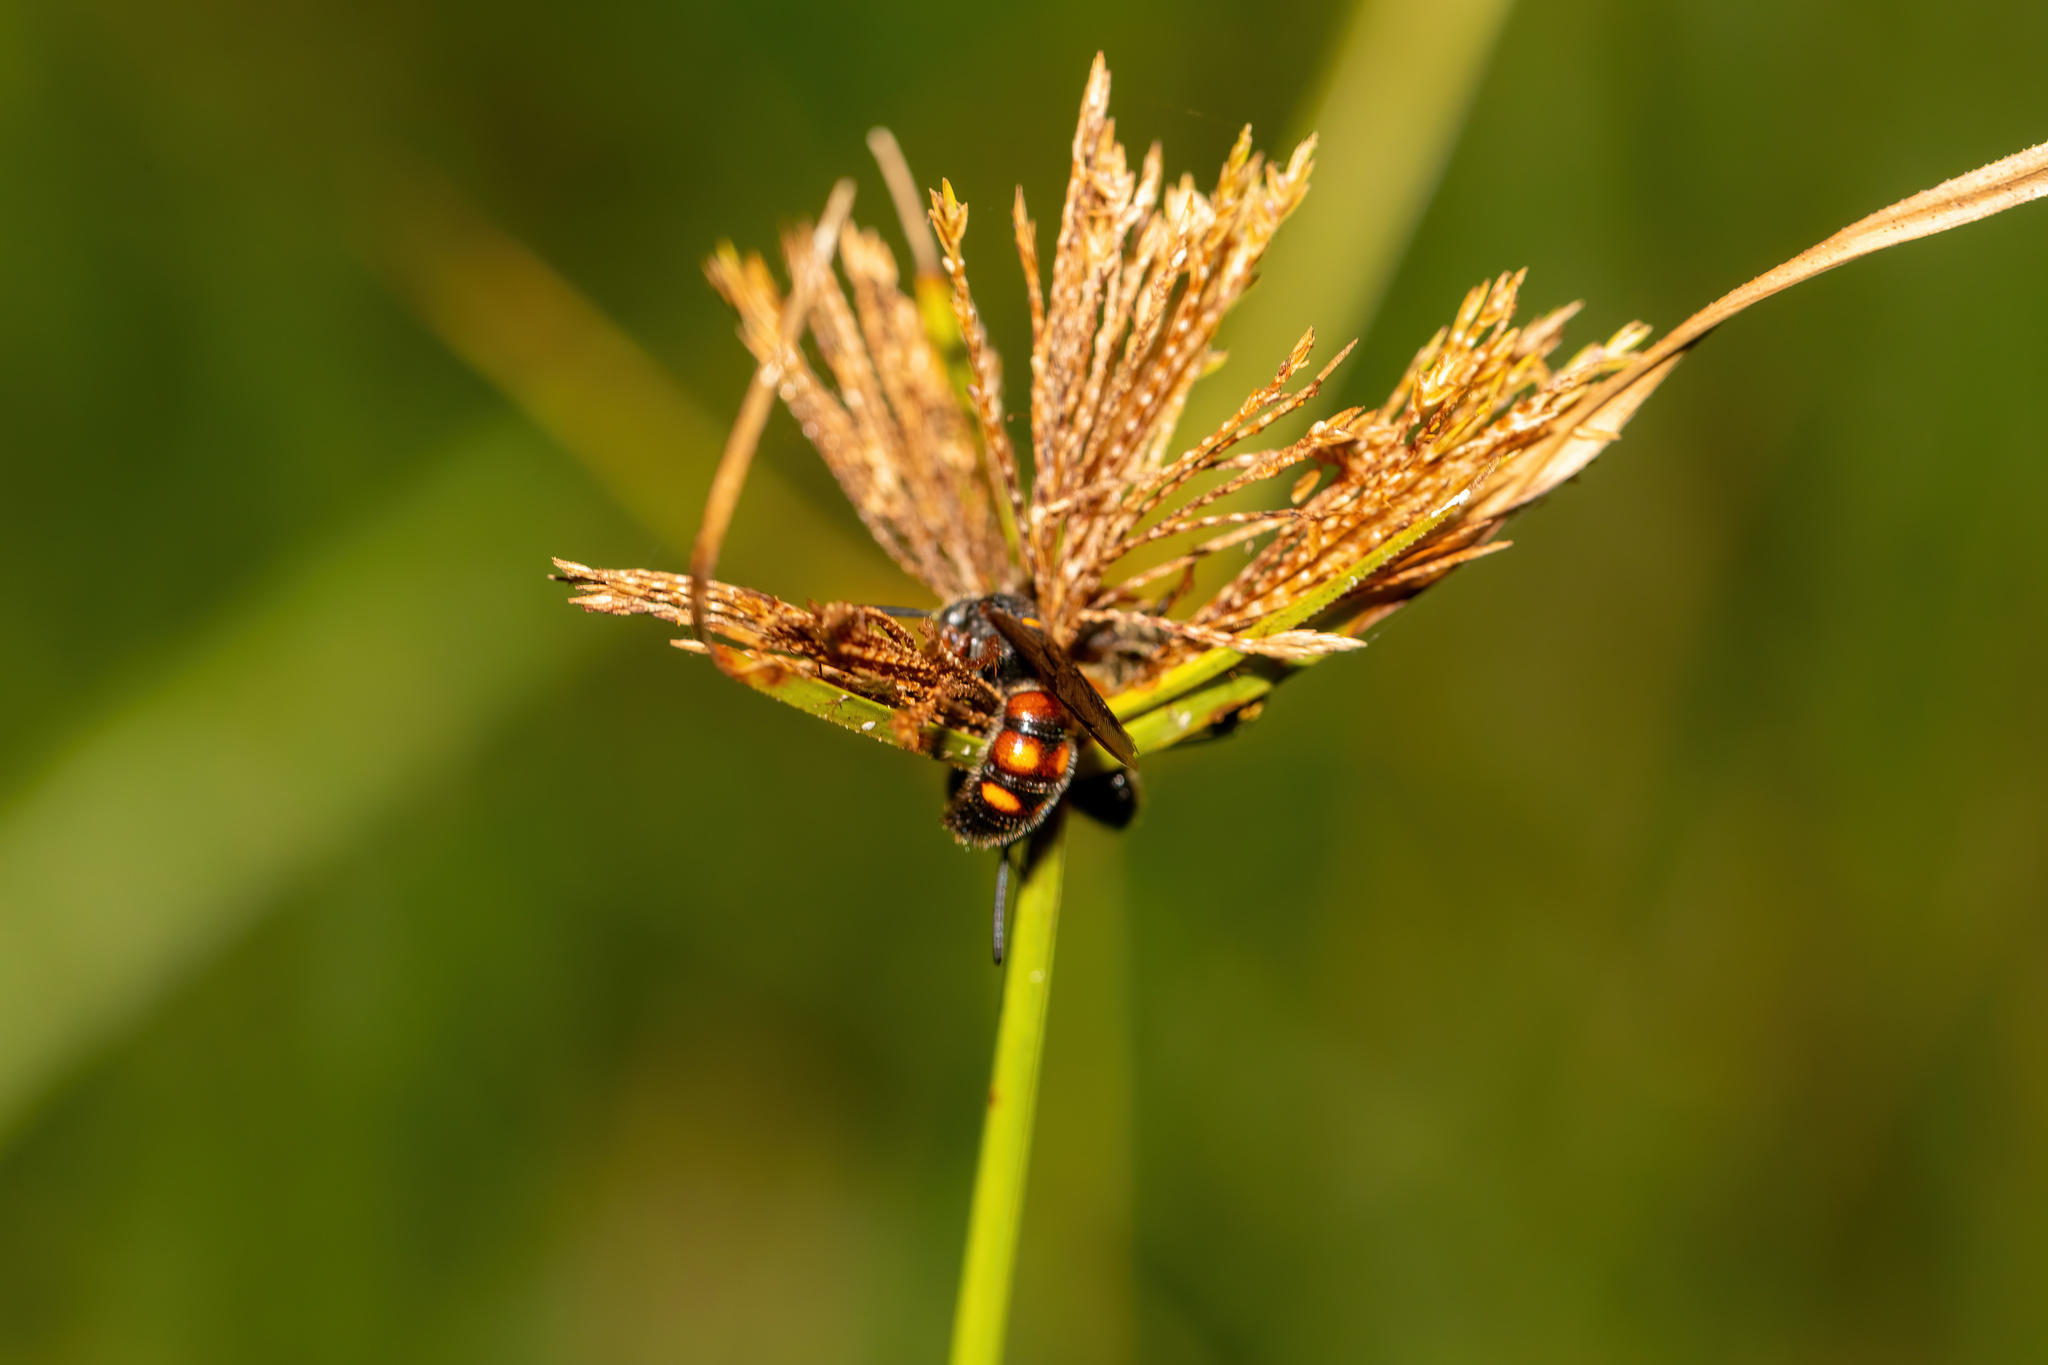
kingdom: Animalia
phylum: Arthropoda
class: Insecta
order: Hymenoptera
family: Scoliidae
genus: Scolia
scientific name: Scolia nobilitata
